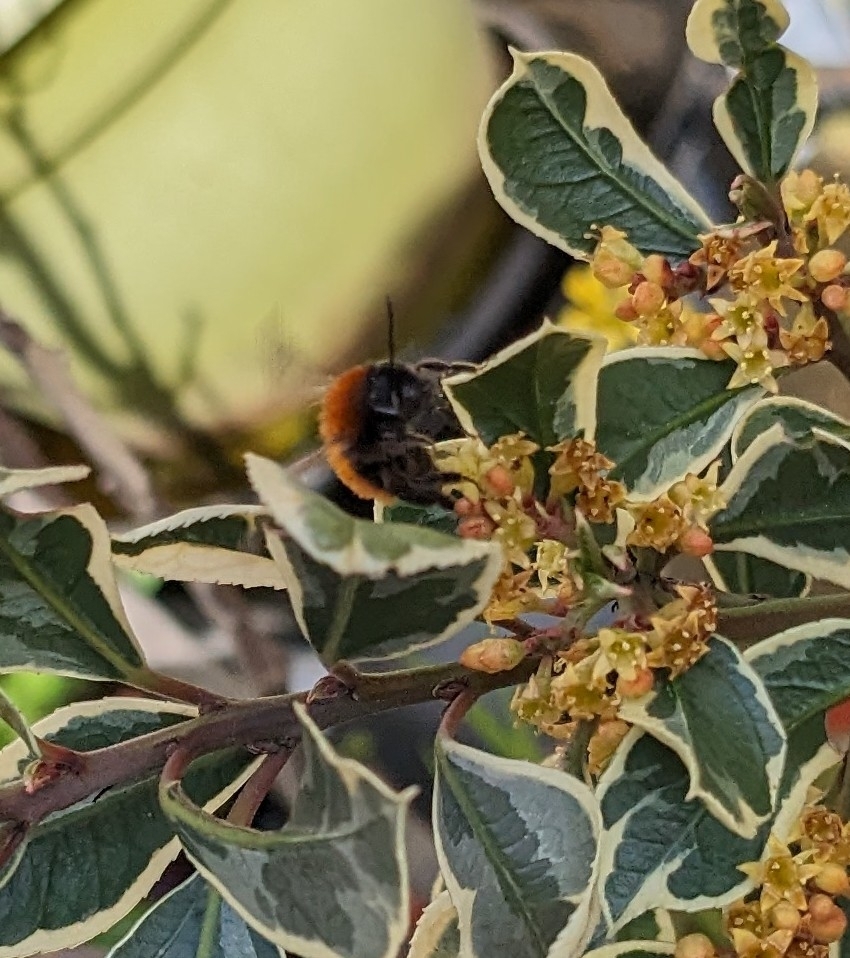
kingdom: Animalia
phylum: Arthropoda
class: Insecta
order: Hymenoptera
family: Andrenidae
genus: Andrena
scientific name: Andrena fulva
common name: Tawny mining bee
